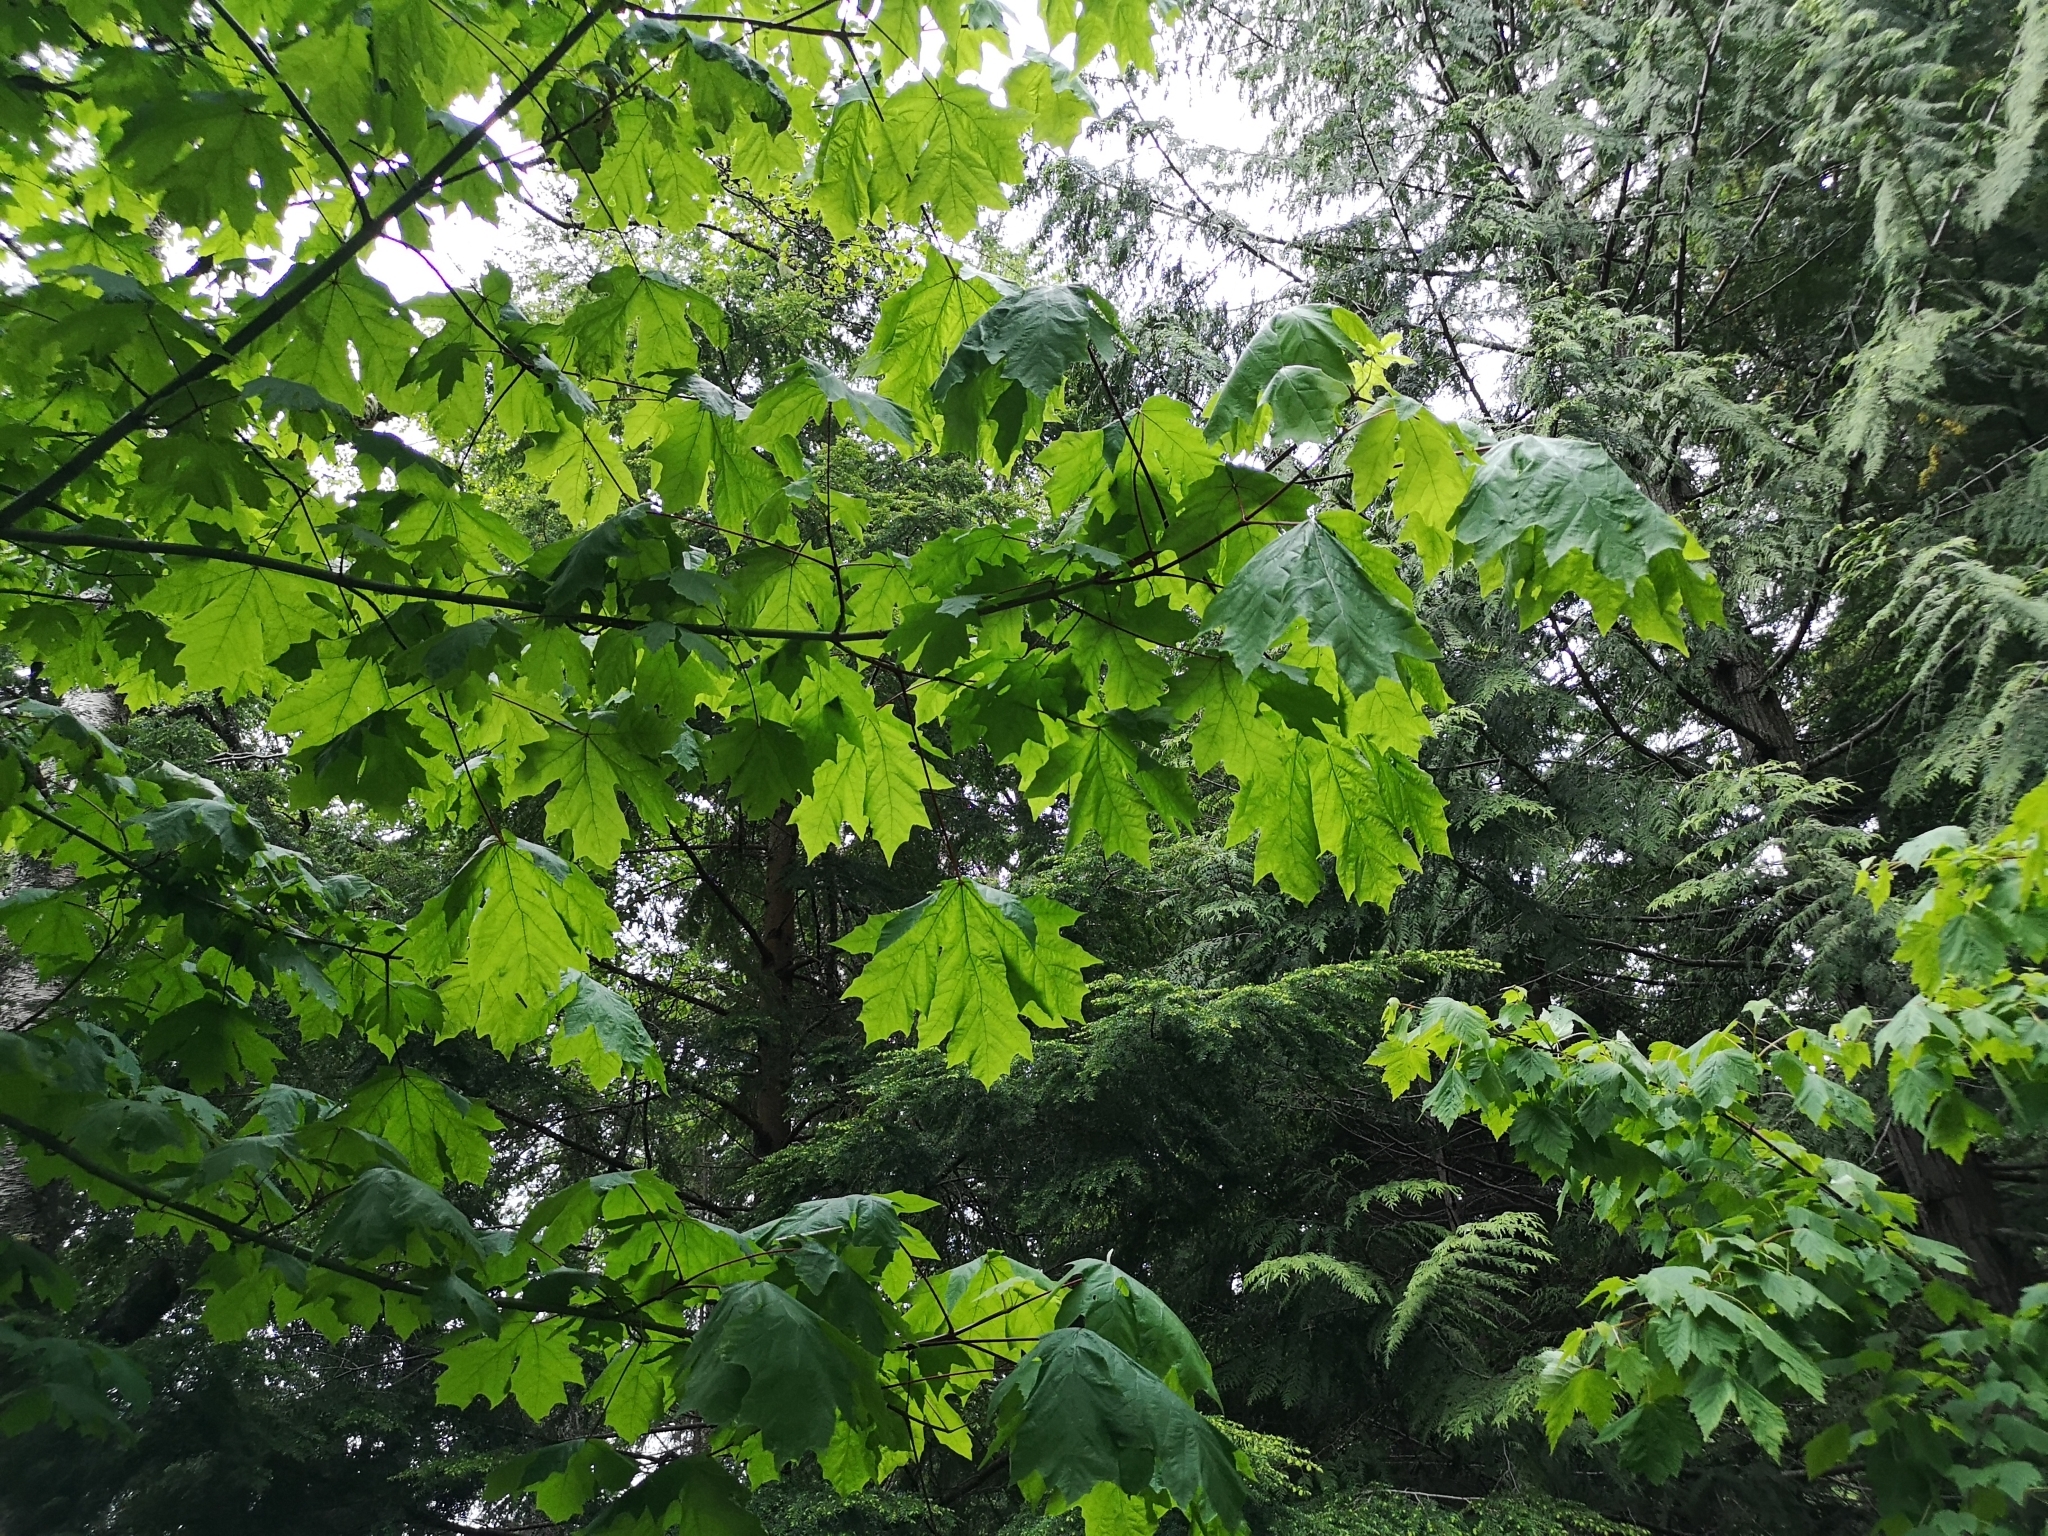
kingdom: Plantae
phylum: Tracheophyta
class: Magnoliopsida
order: Sapindales
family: Sapindaceae
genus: Acer
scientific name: Acer macrophyllum
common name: Oregon maple
